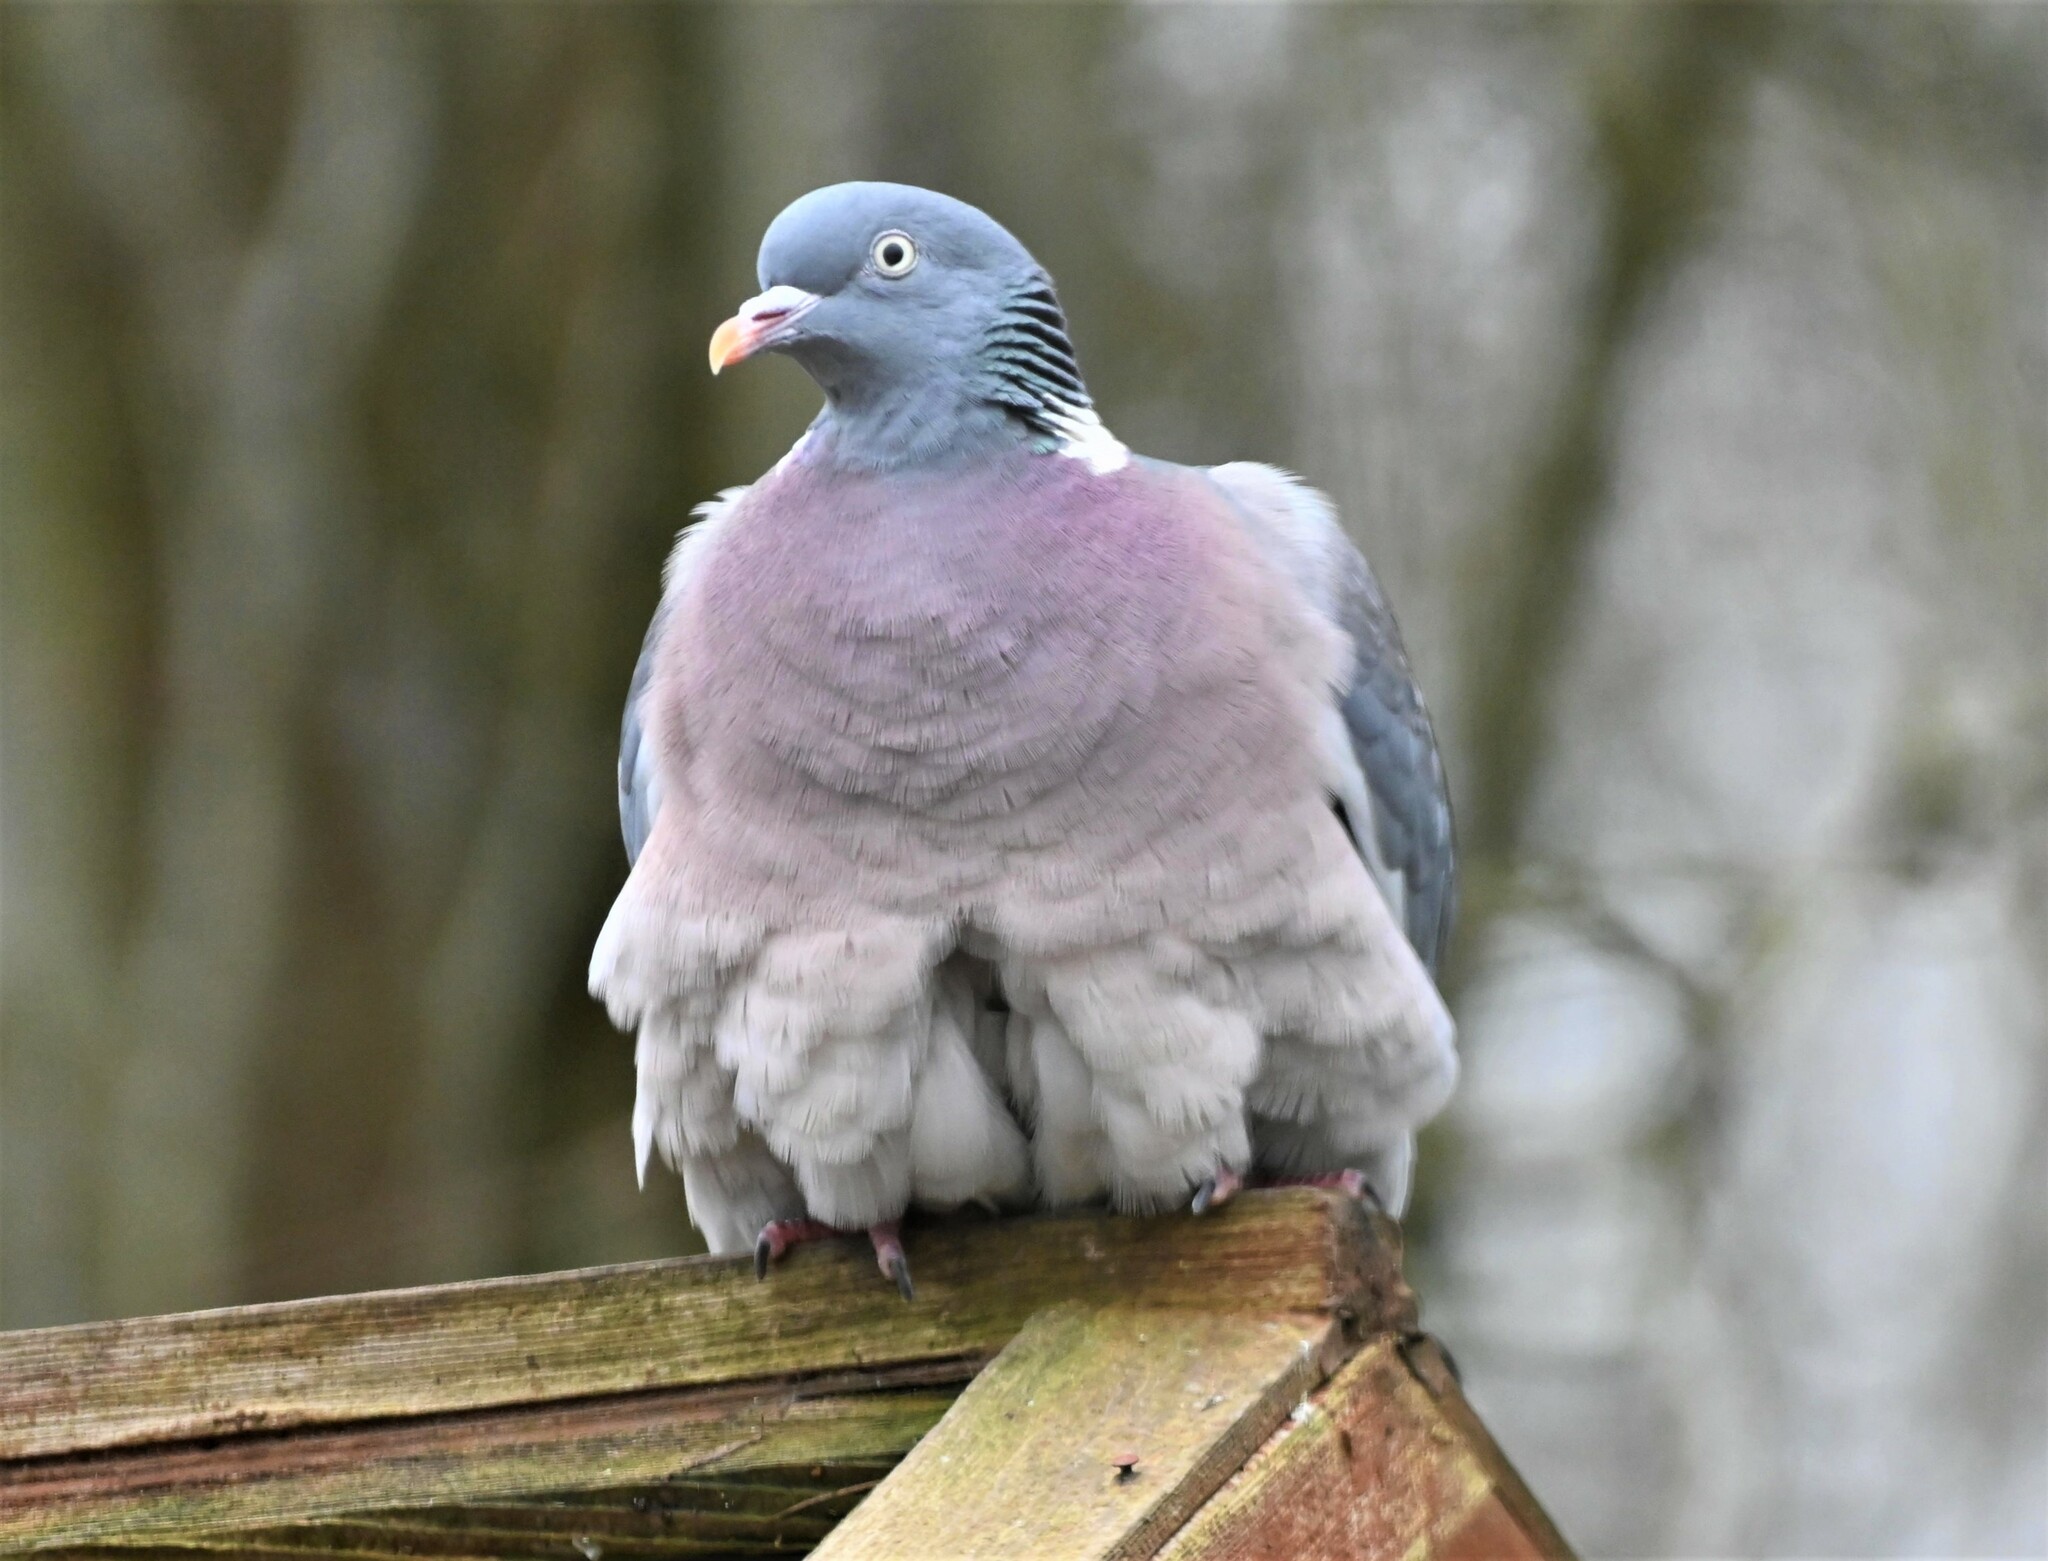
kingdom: Animalia
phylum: Chordata
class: Aves
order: Columbiformes
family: Columbidae
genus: Columba
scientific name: Columba palumbus
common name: Common wood pigeon
